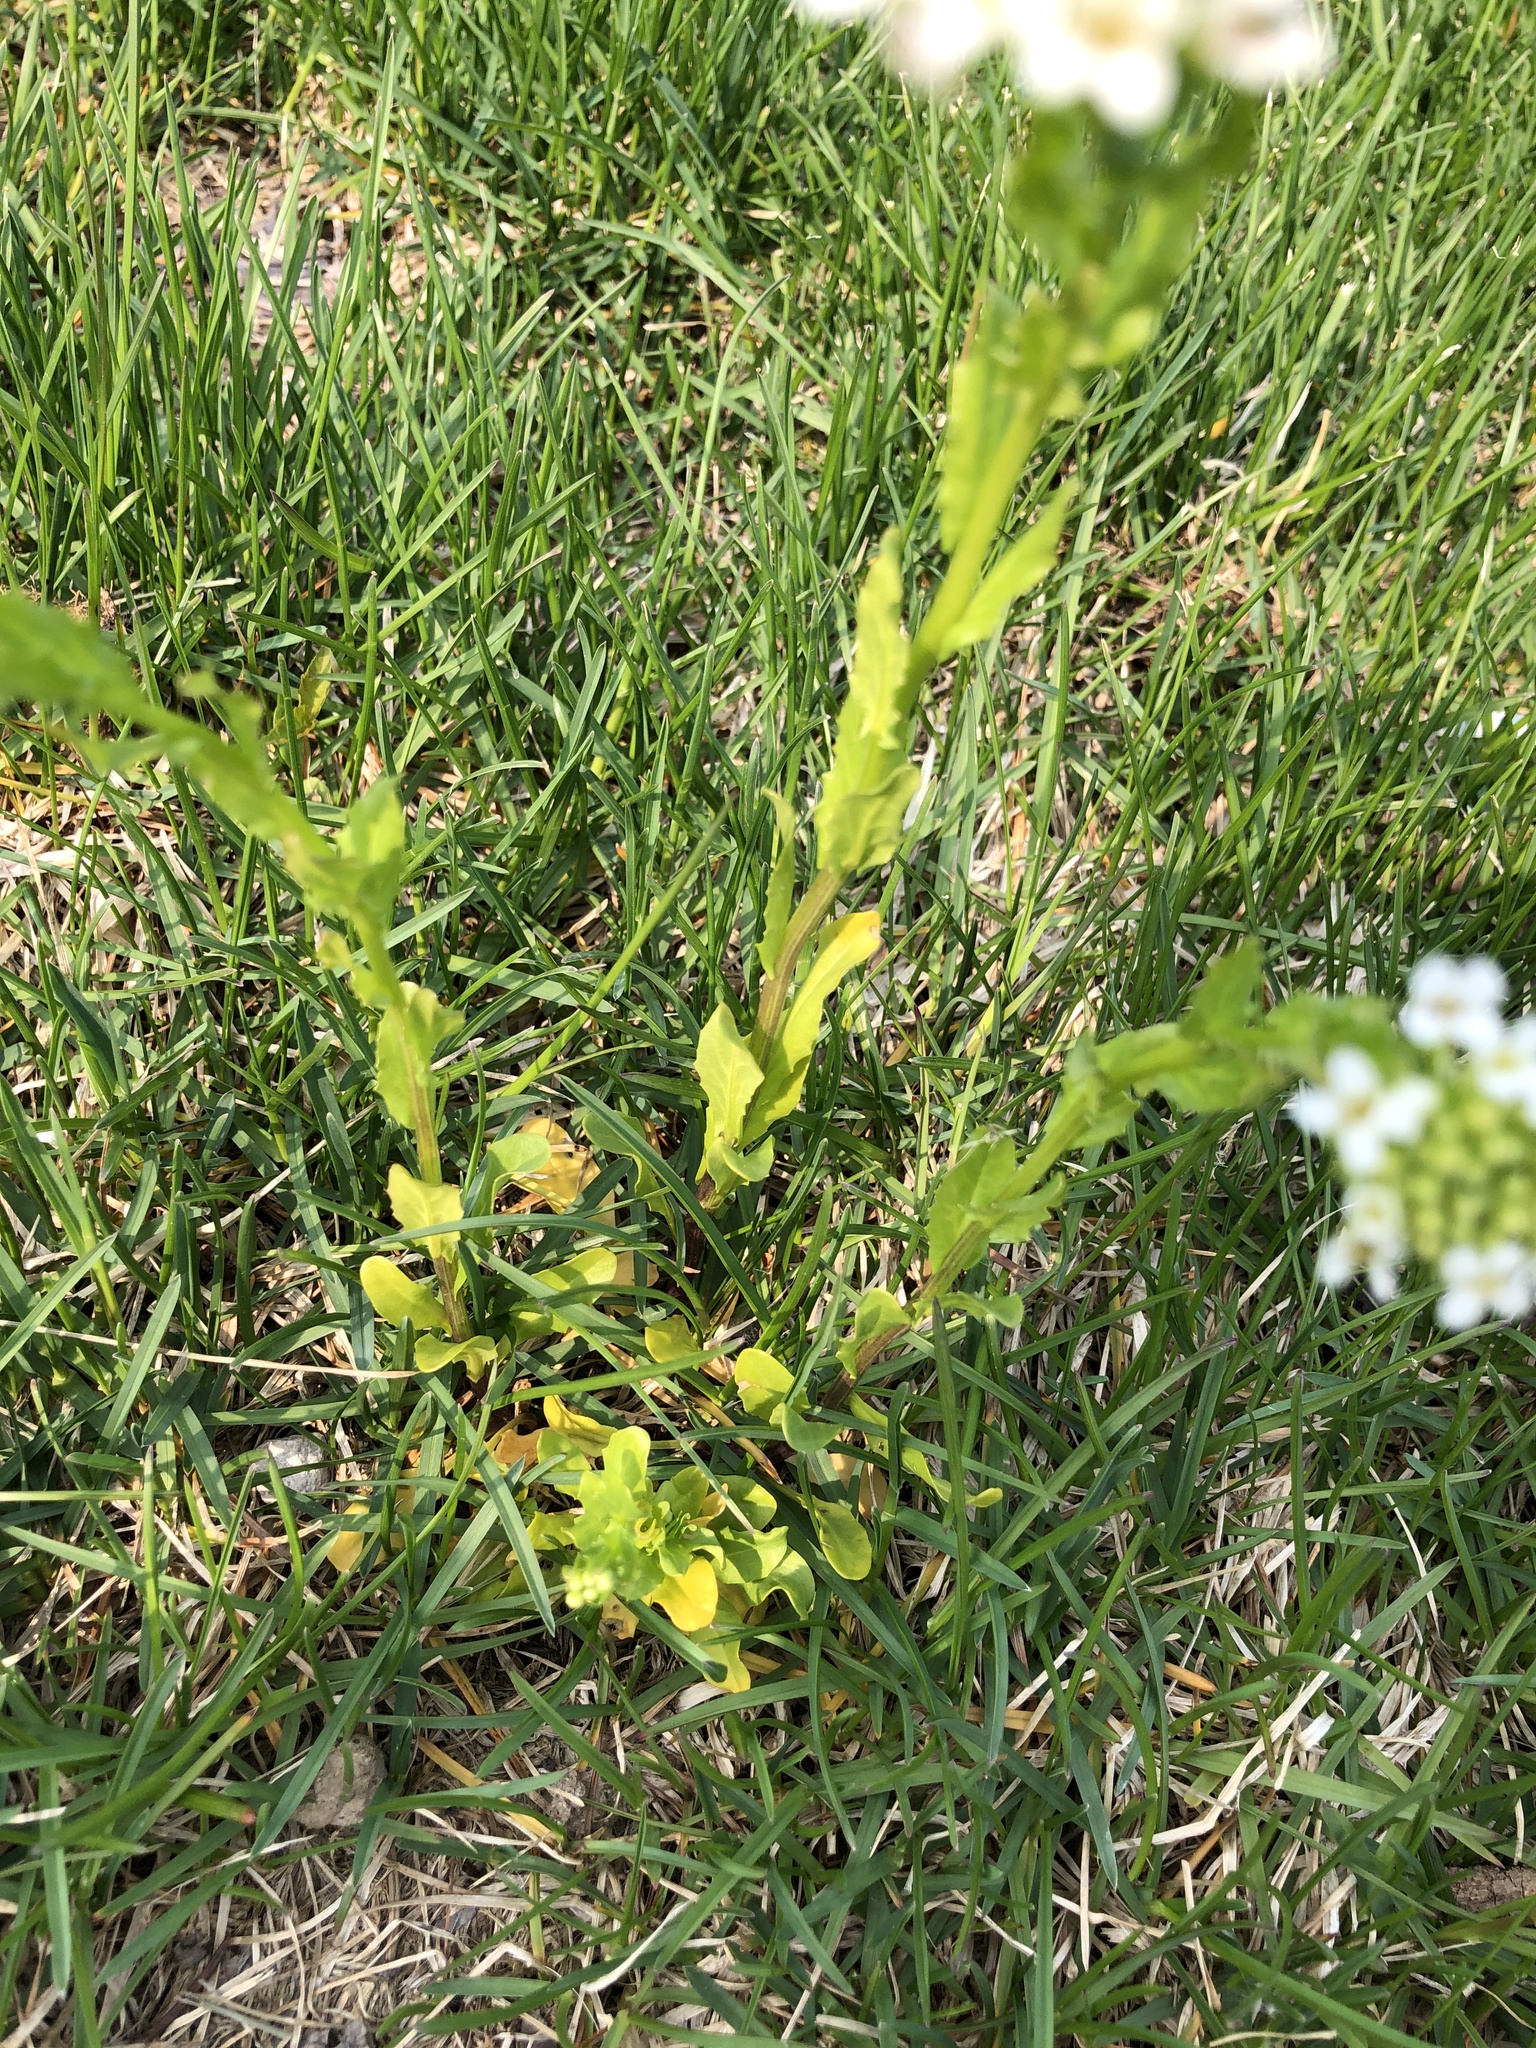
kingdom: Plantae
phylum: Tracheophyta
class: Magnoliopsida
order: Brassicales
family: Brassicaceae
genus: Thlaspi
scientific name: Thlaspi arvense
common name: Field pennycress
